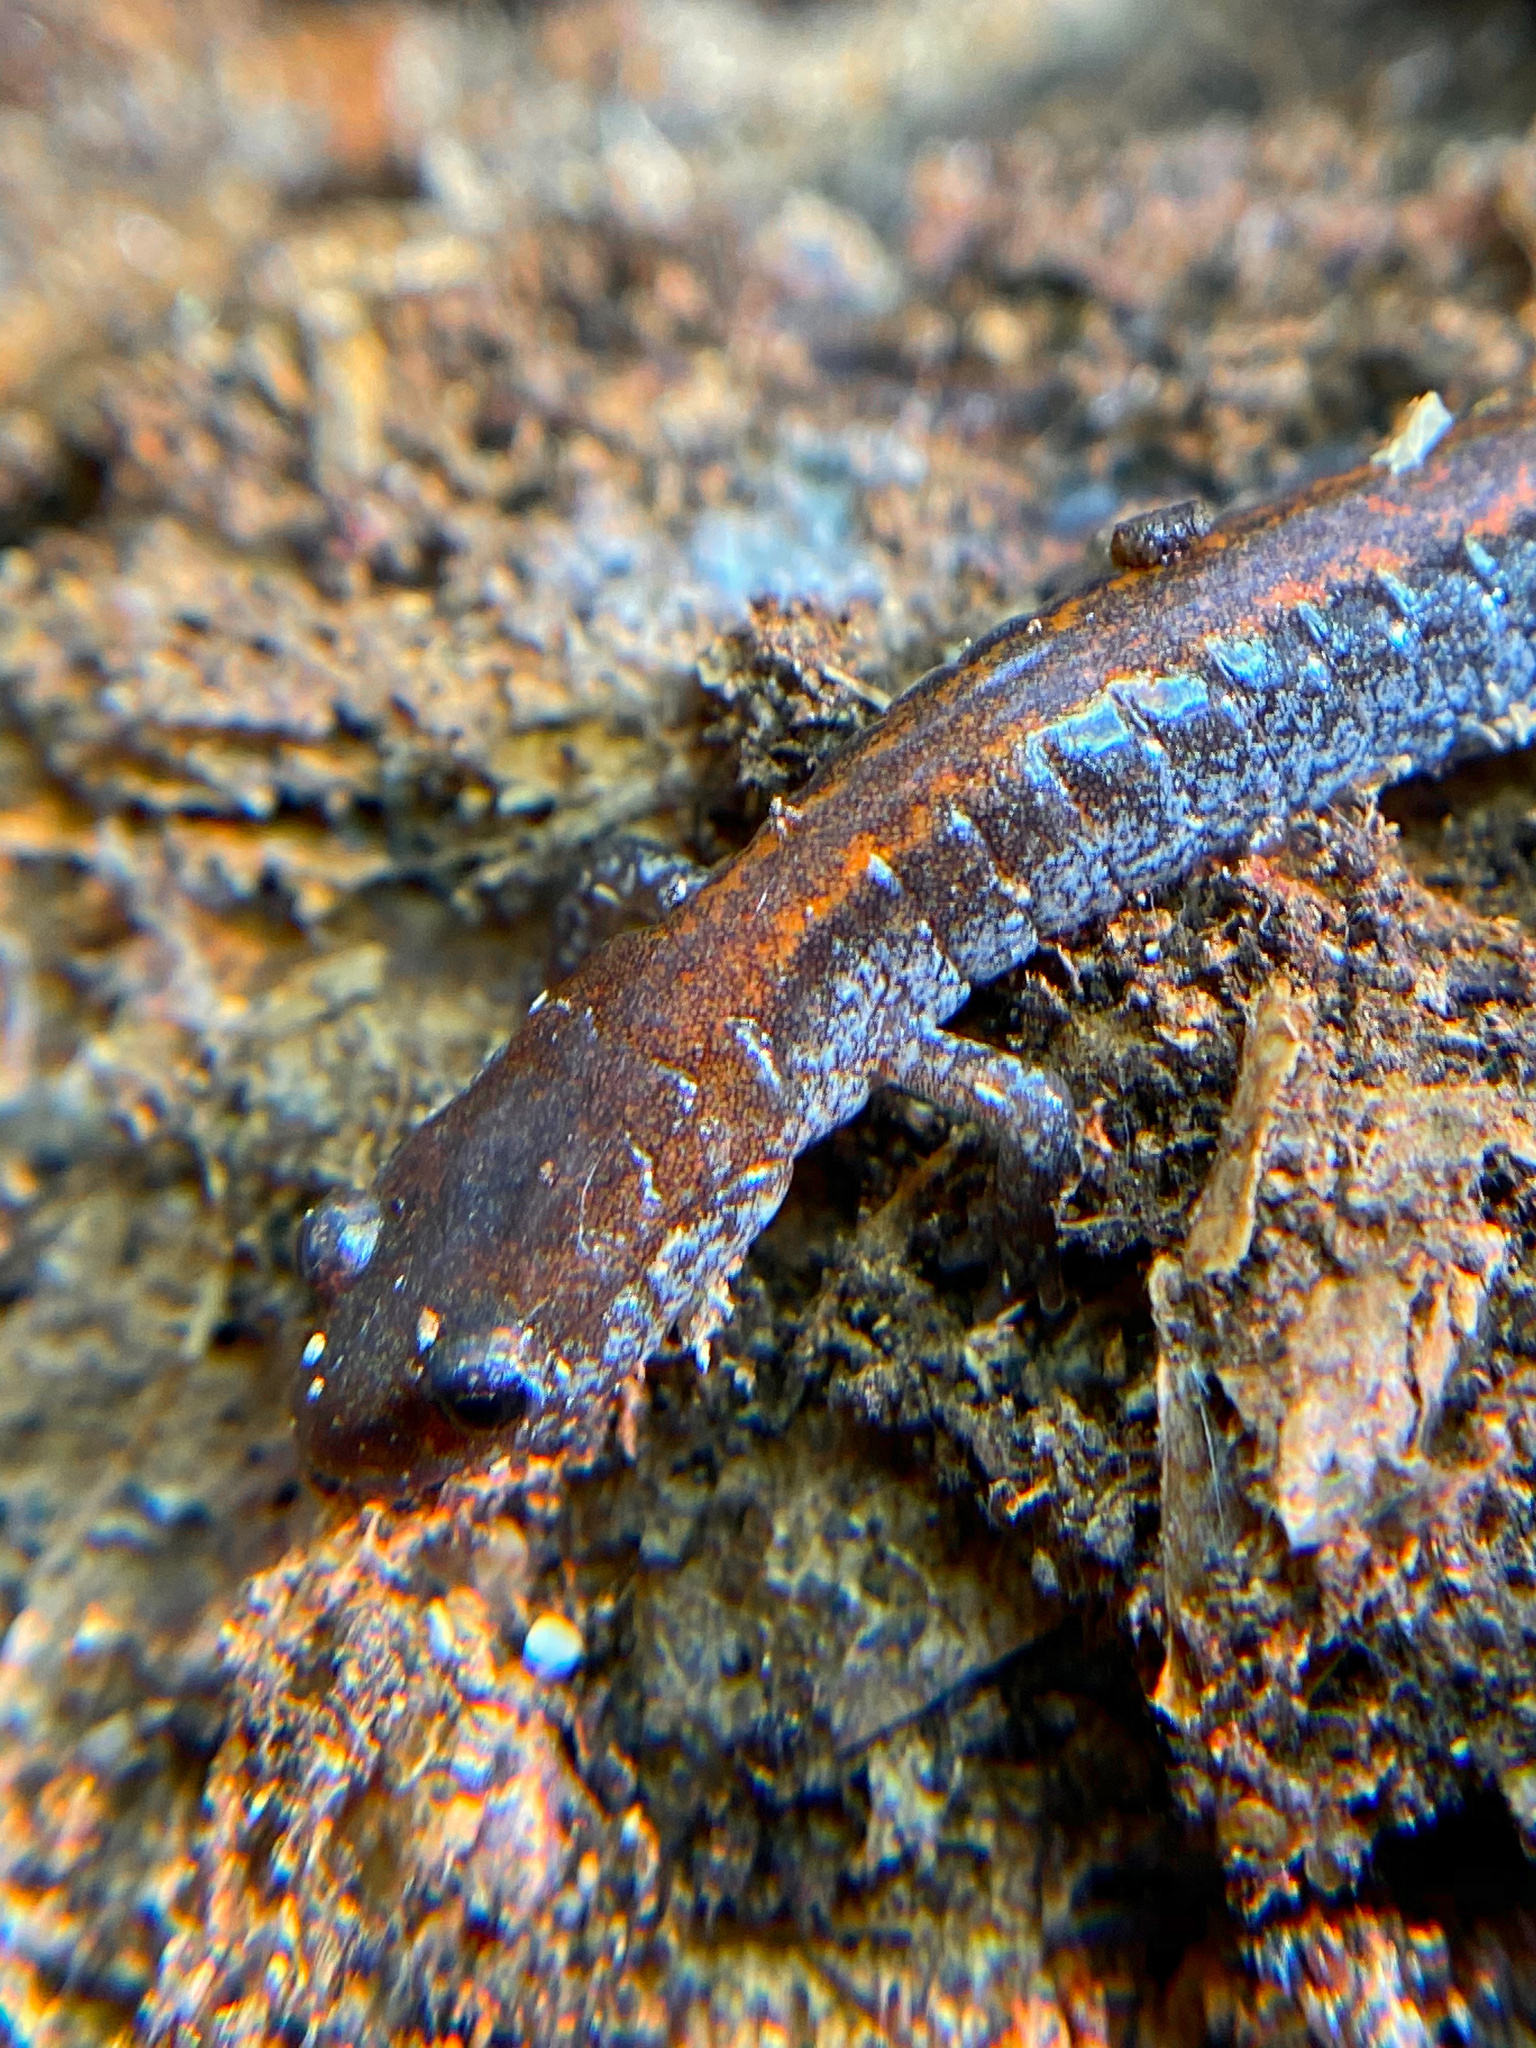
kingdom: Animalia
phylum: Chordata
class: Amphibia
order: Caudata
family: Plethodontidae
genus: Plethodon
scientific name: Plethodon cinereus
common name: Redback salamander
